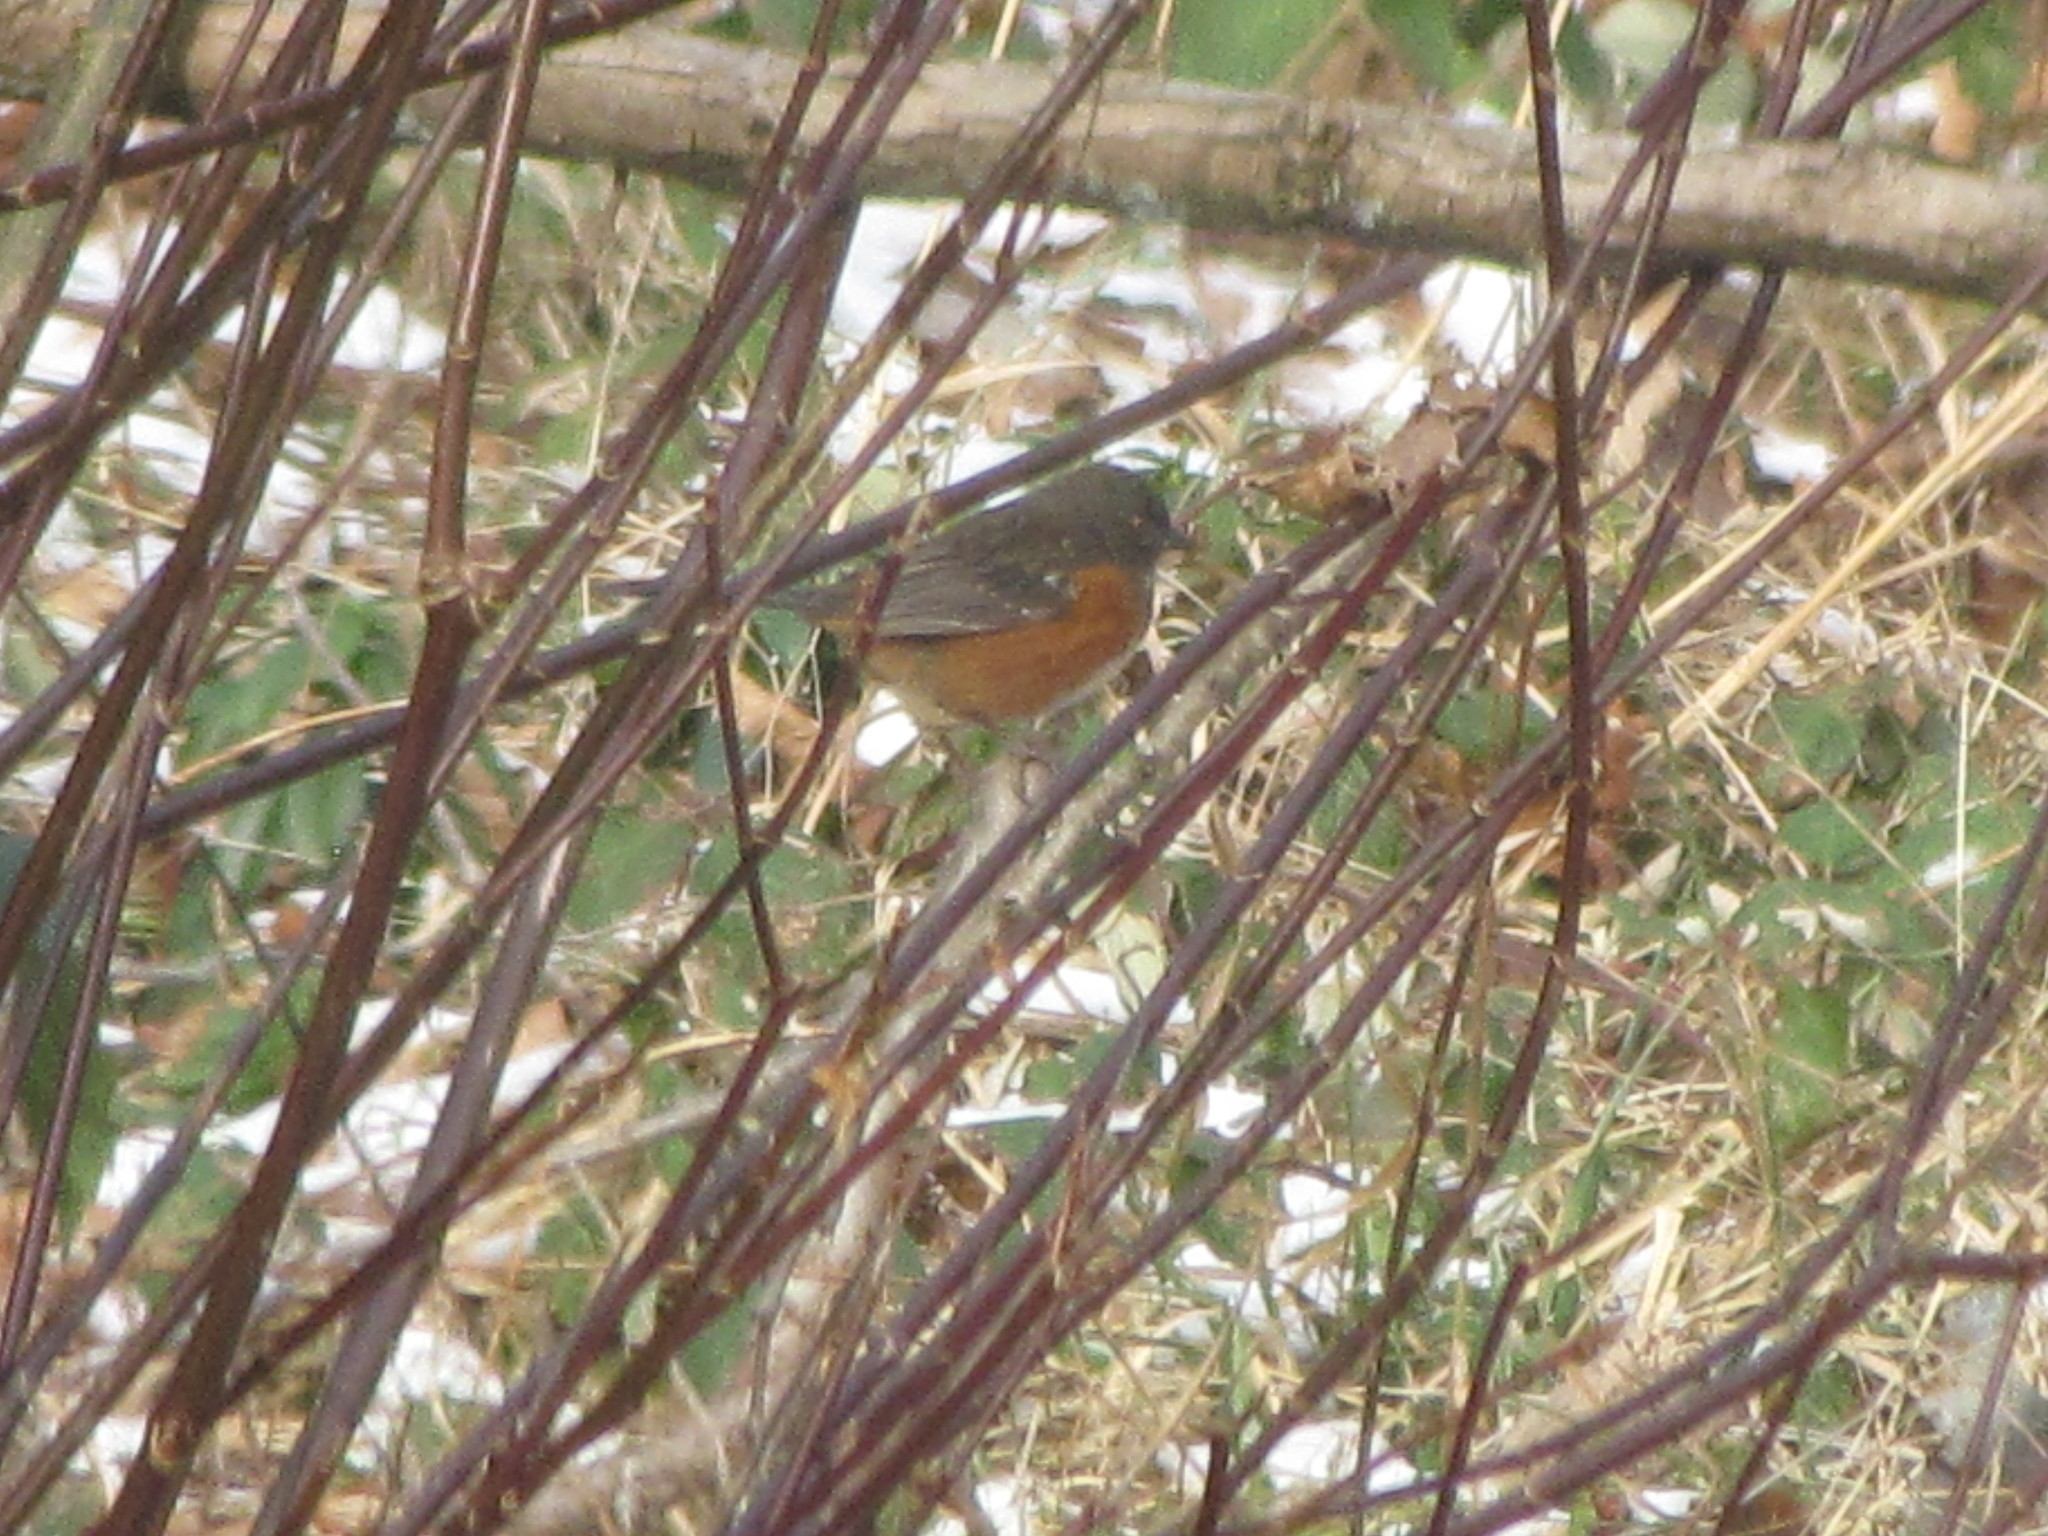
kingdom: Animalia
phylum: Chordata
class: Aves
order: Passeriformes
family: Passerellidae
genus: Pipilo
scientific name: Pipilo maculatus
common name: Spotted towhee
